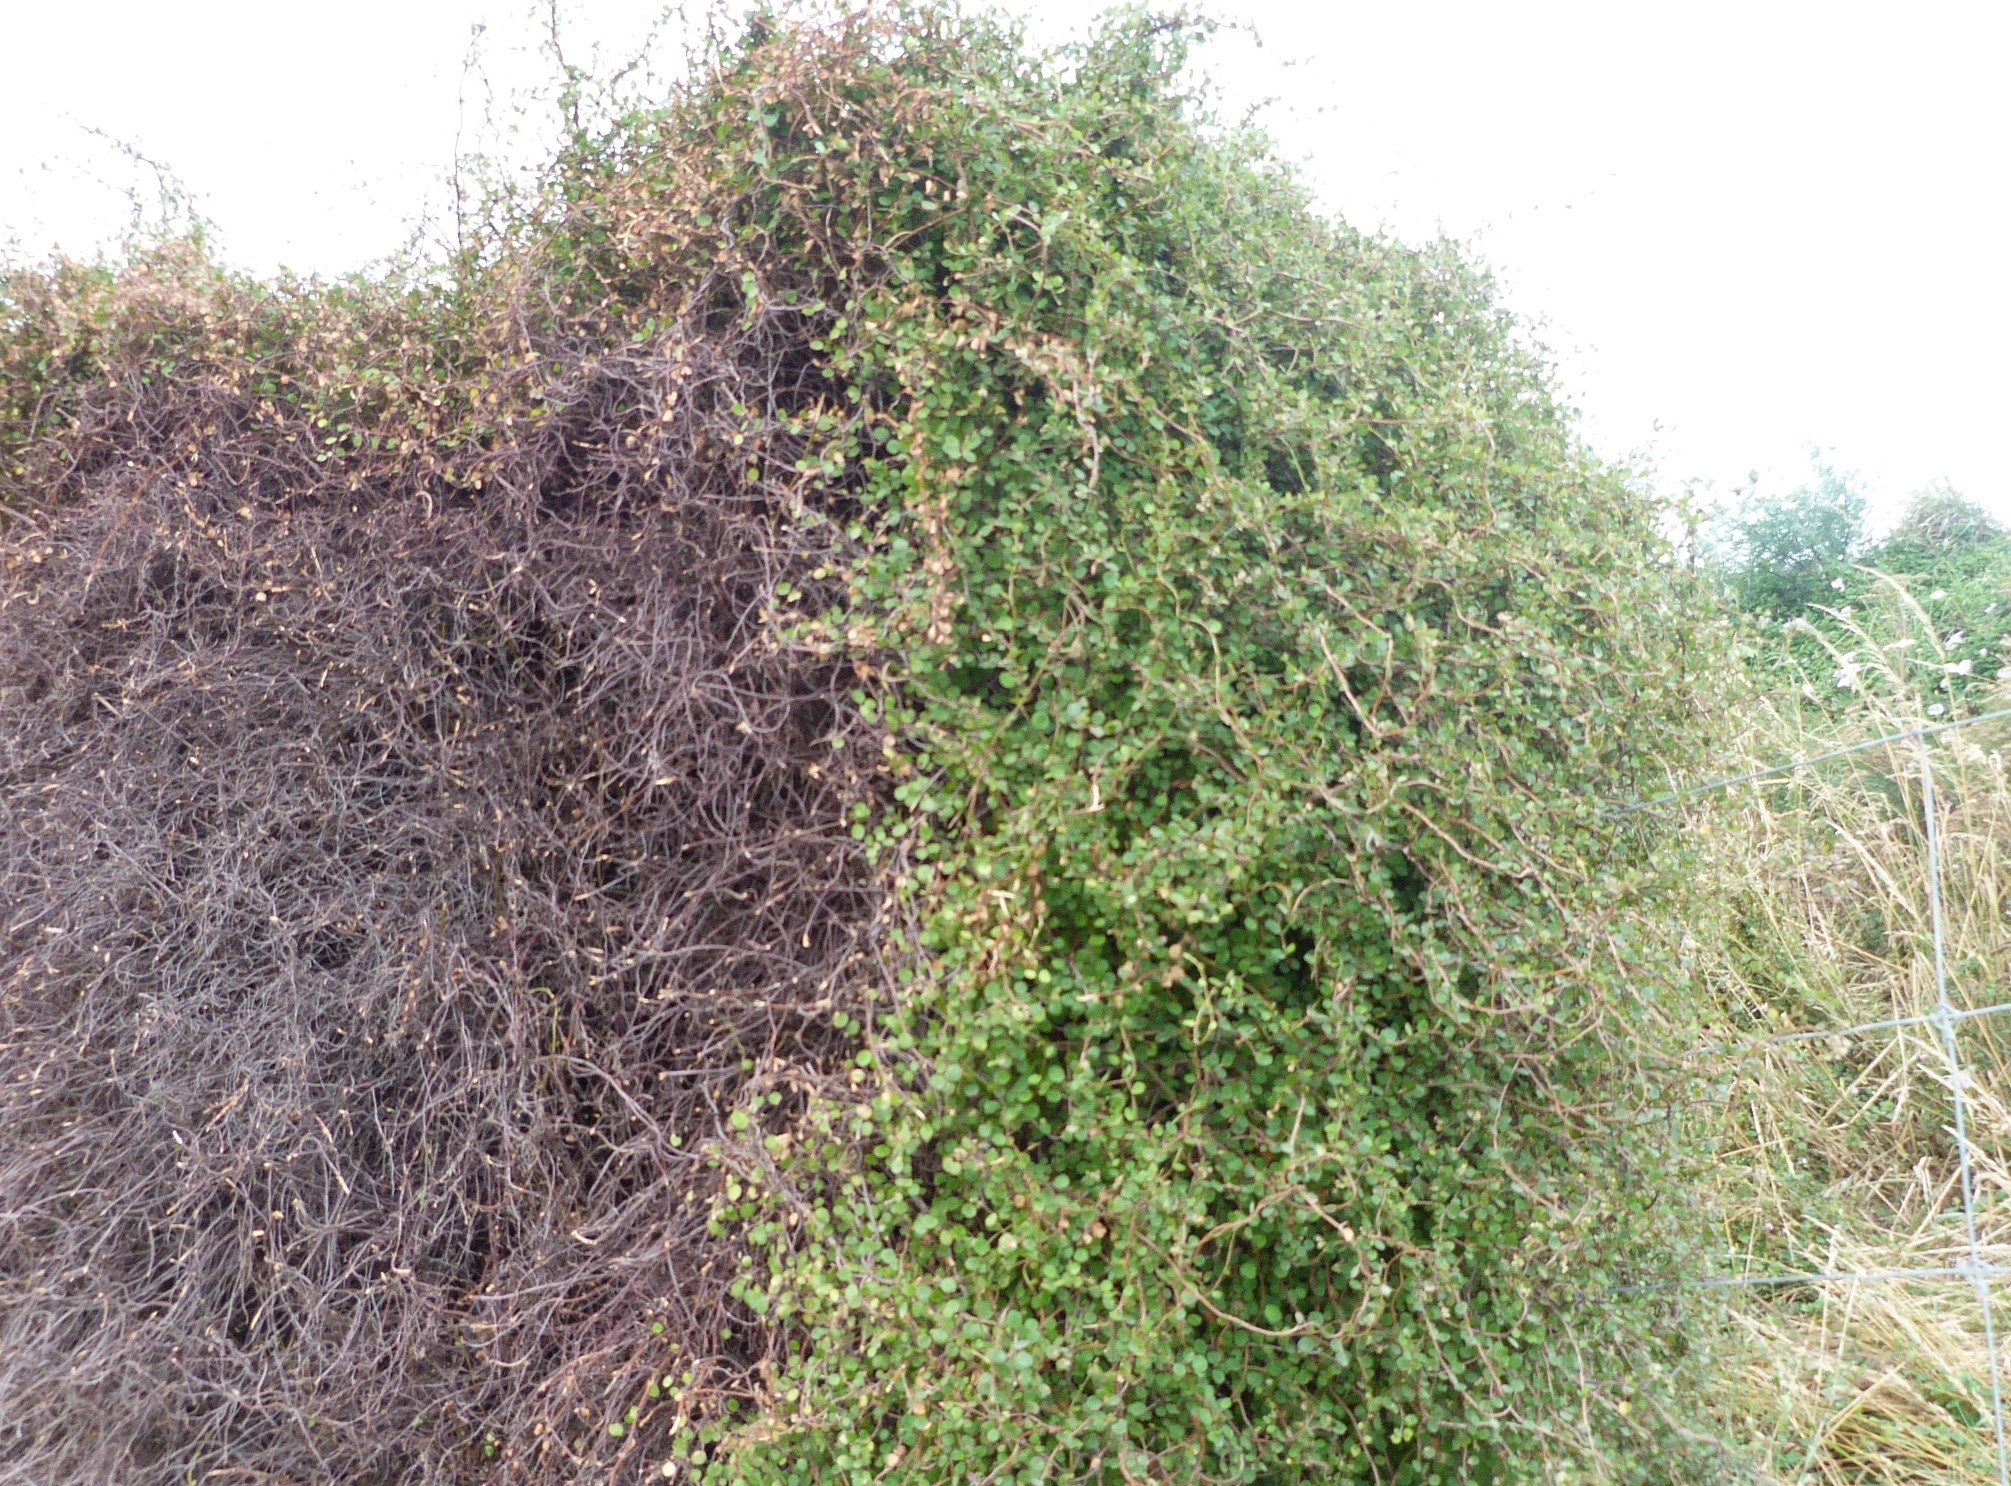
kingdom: Plantae
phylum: Tracheophyta
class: Magnoliopsida
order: Caryophyllales
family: Polygonaceae
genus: Muehlenbeckia
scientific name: Muehlenbeckia complexa
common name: Wireplant
